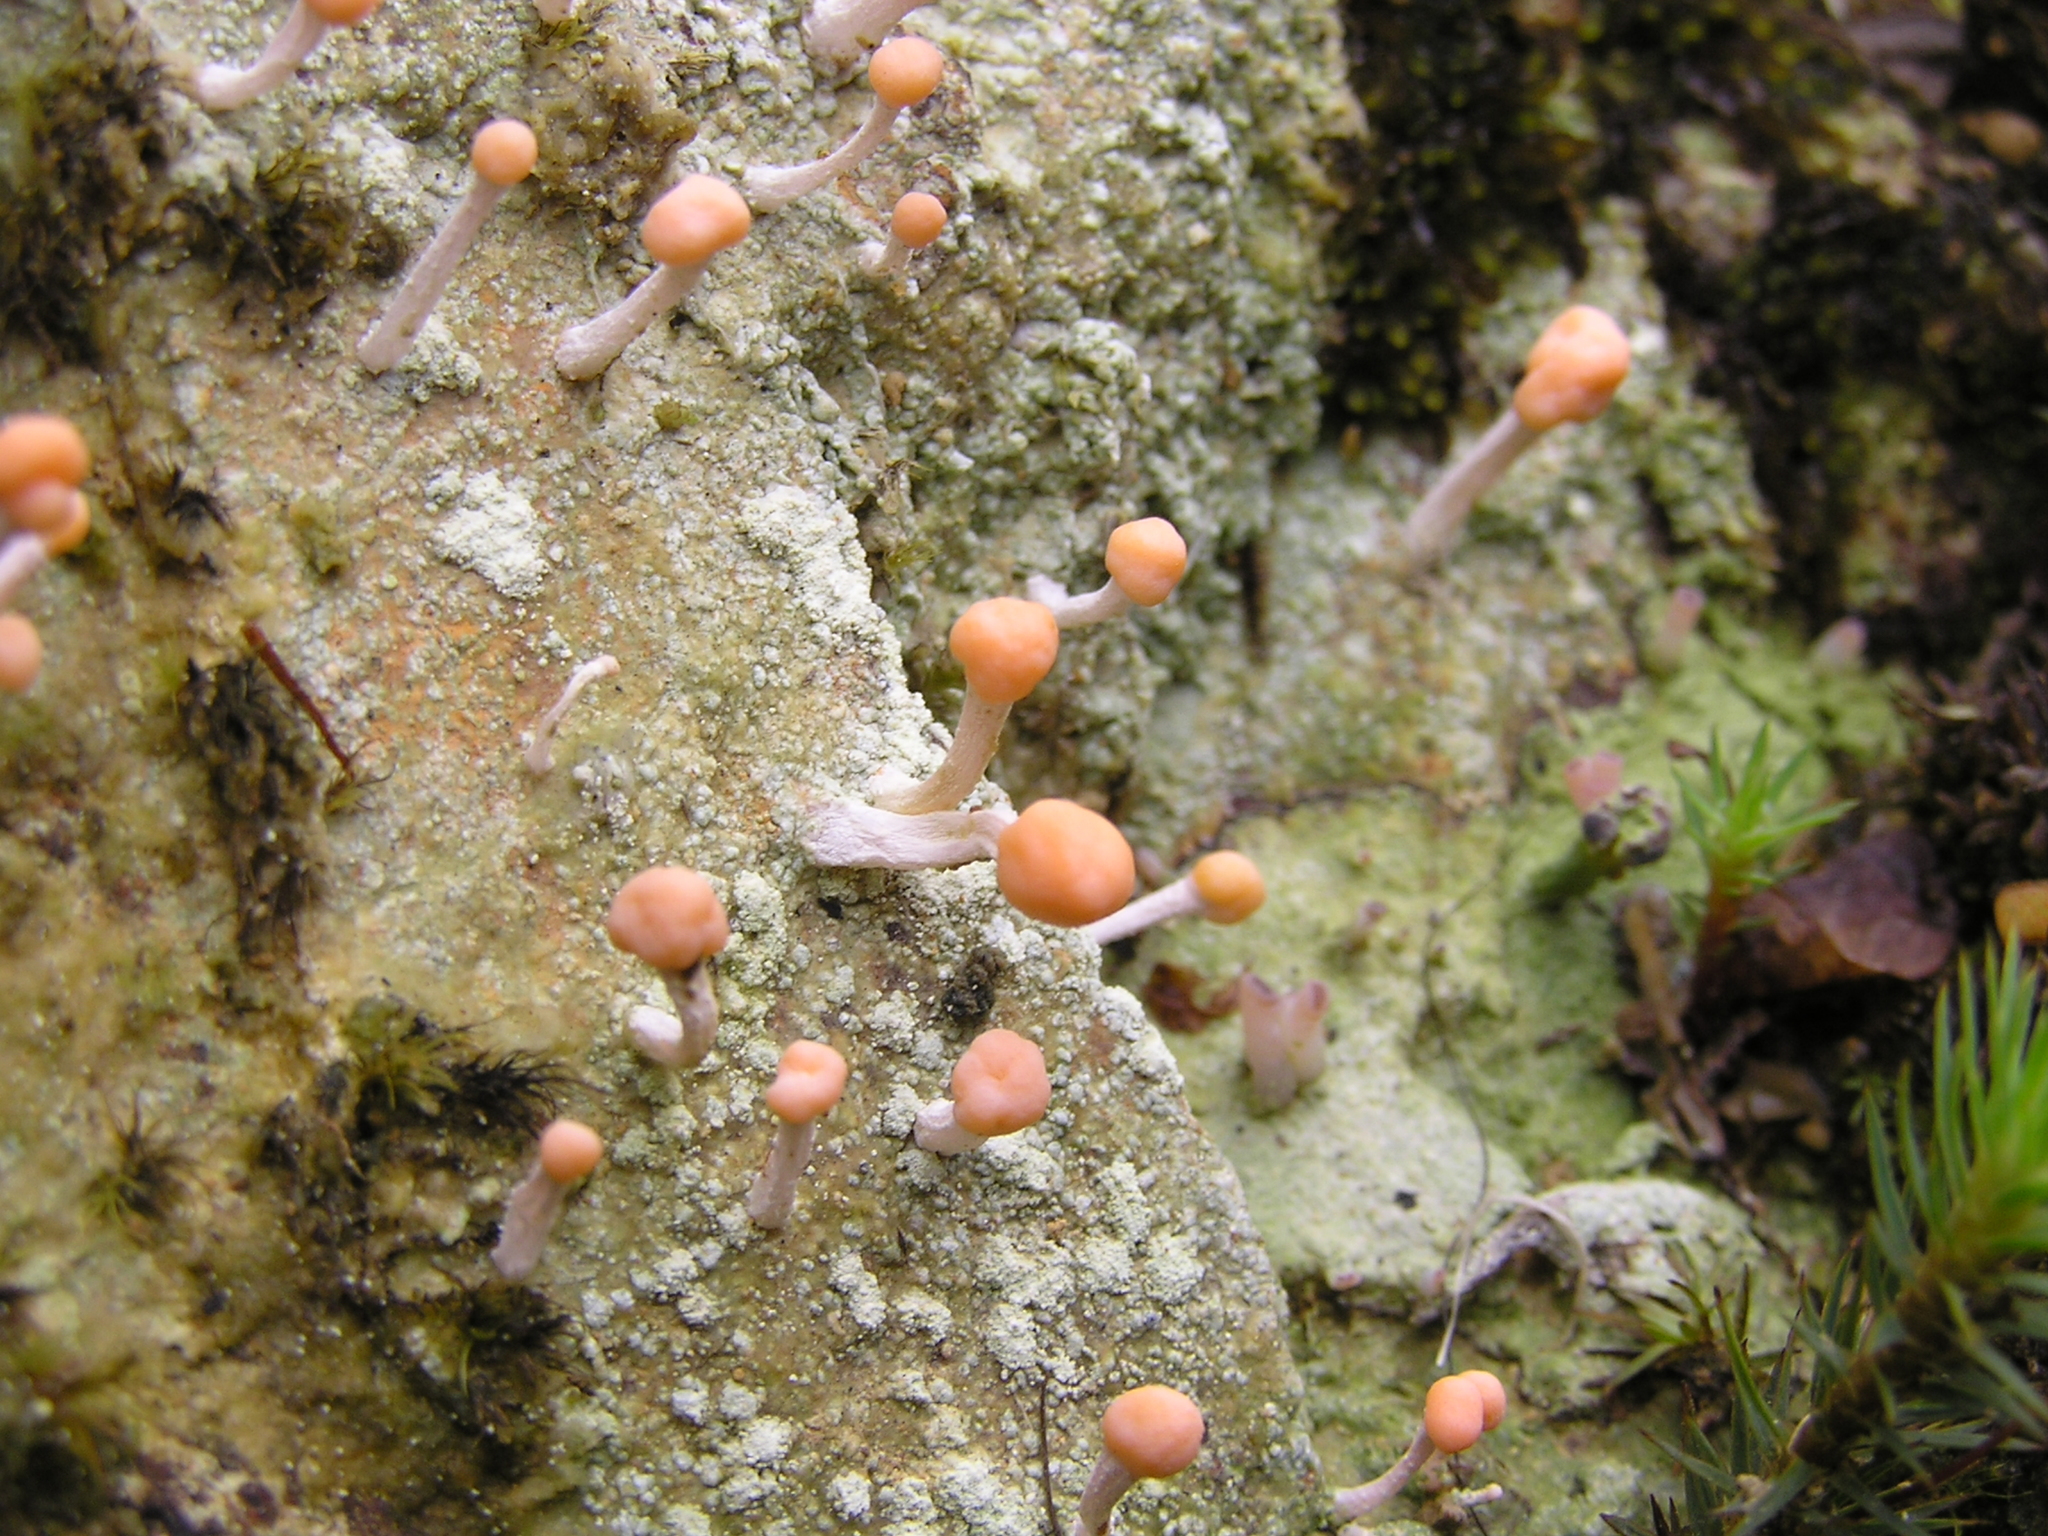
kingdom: Fungi
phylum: Ascomycota
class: Lecanoromycetes
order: Pertusariales
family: Icmadophilaceae
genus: Dibaeis
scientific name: Dibaeis arcuata
